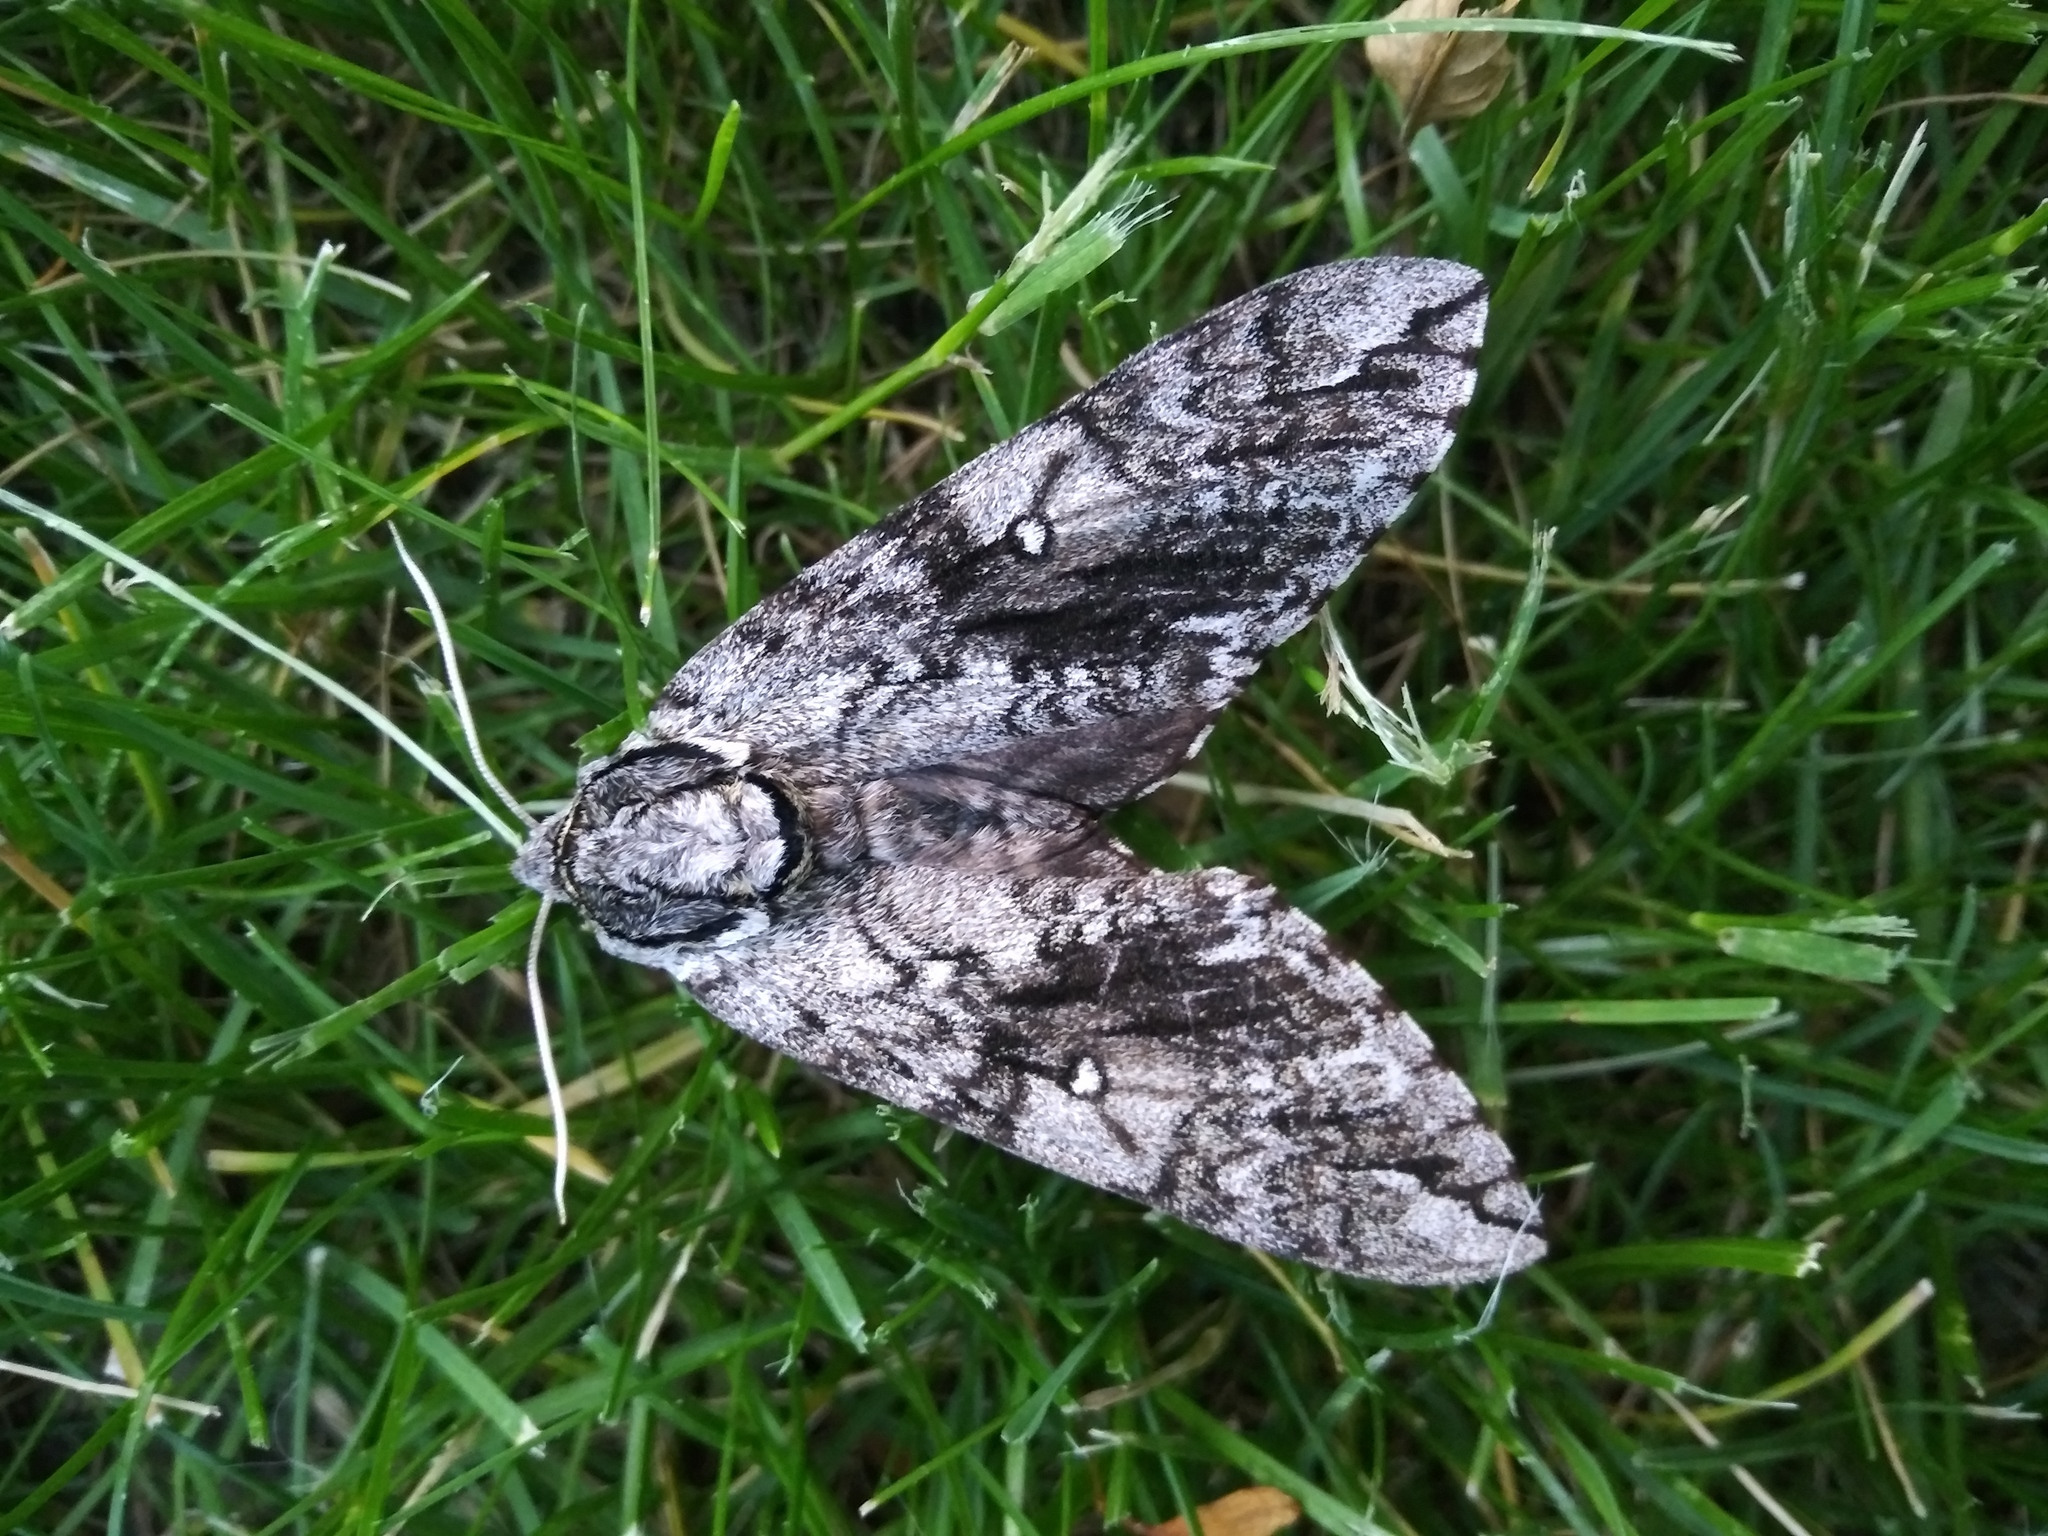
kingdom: Animalia
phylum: Arthropoda
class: Insecta
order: Lepidoptera
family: Sphingidae
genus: Ceratomia
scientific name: Ceratomia undulosa
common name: Waved sphinx
